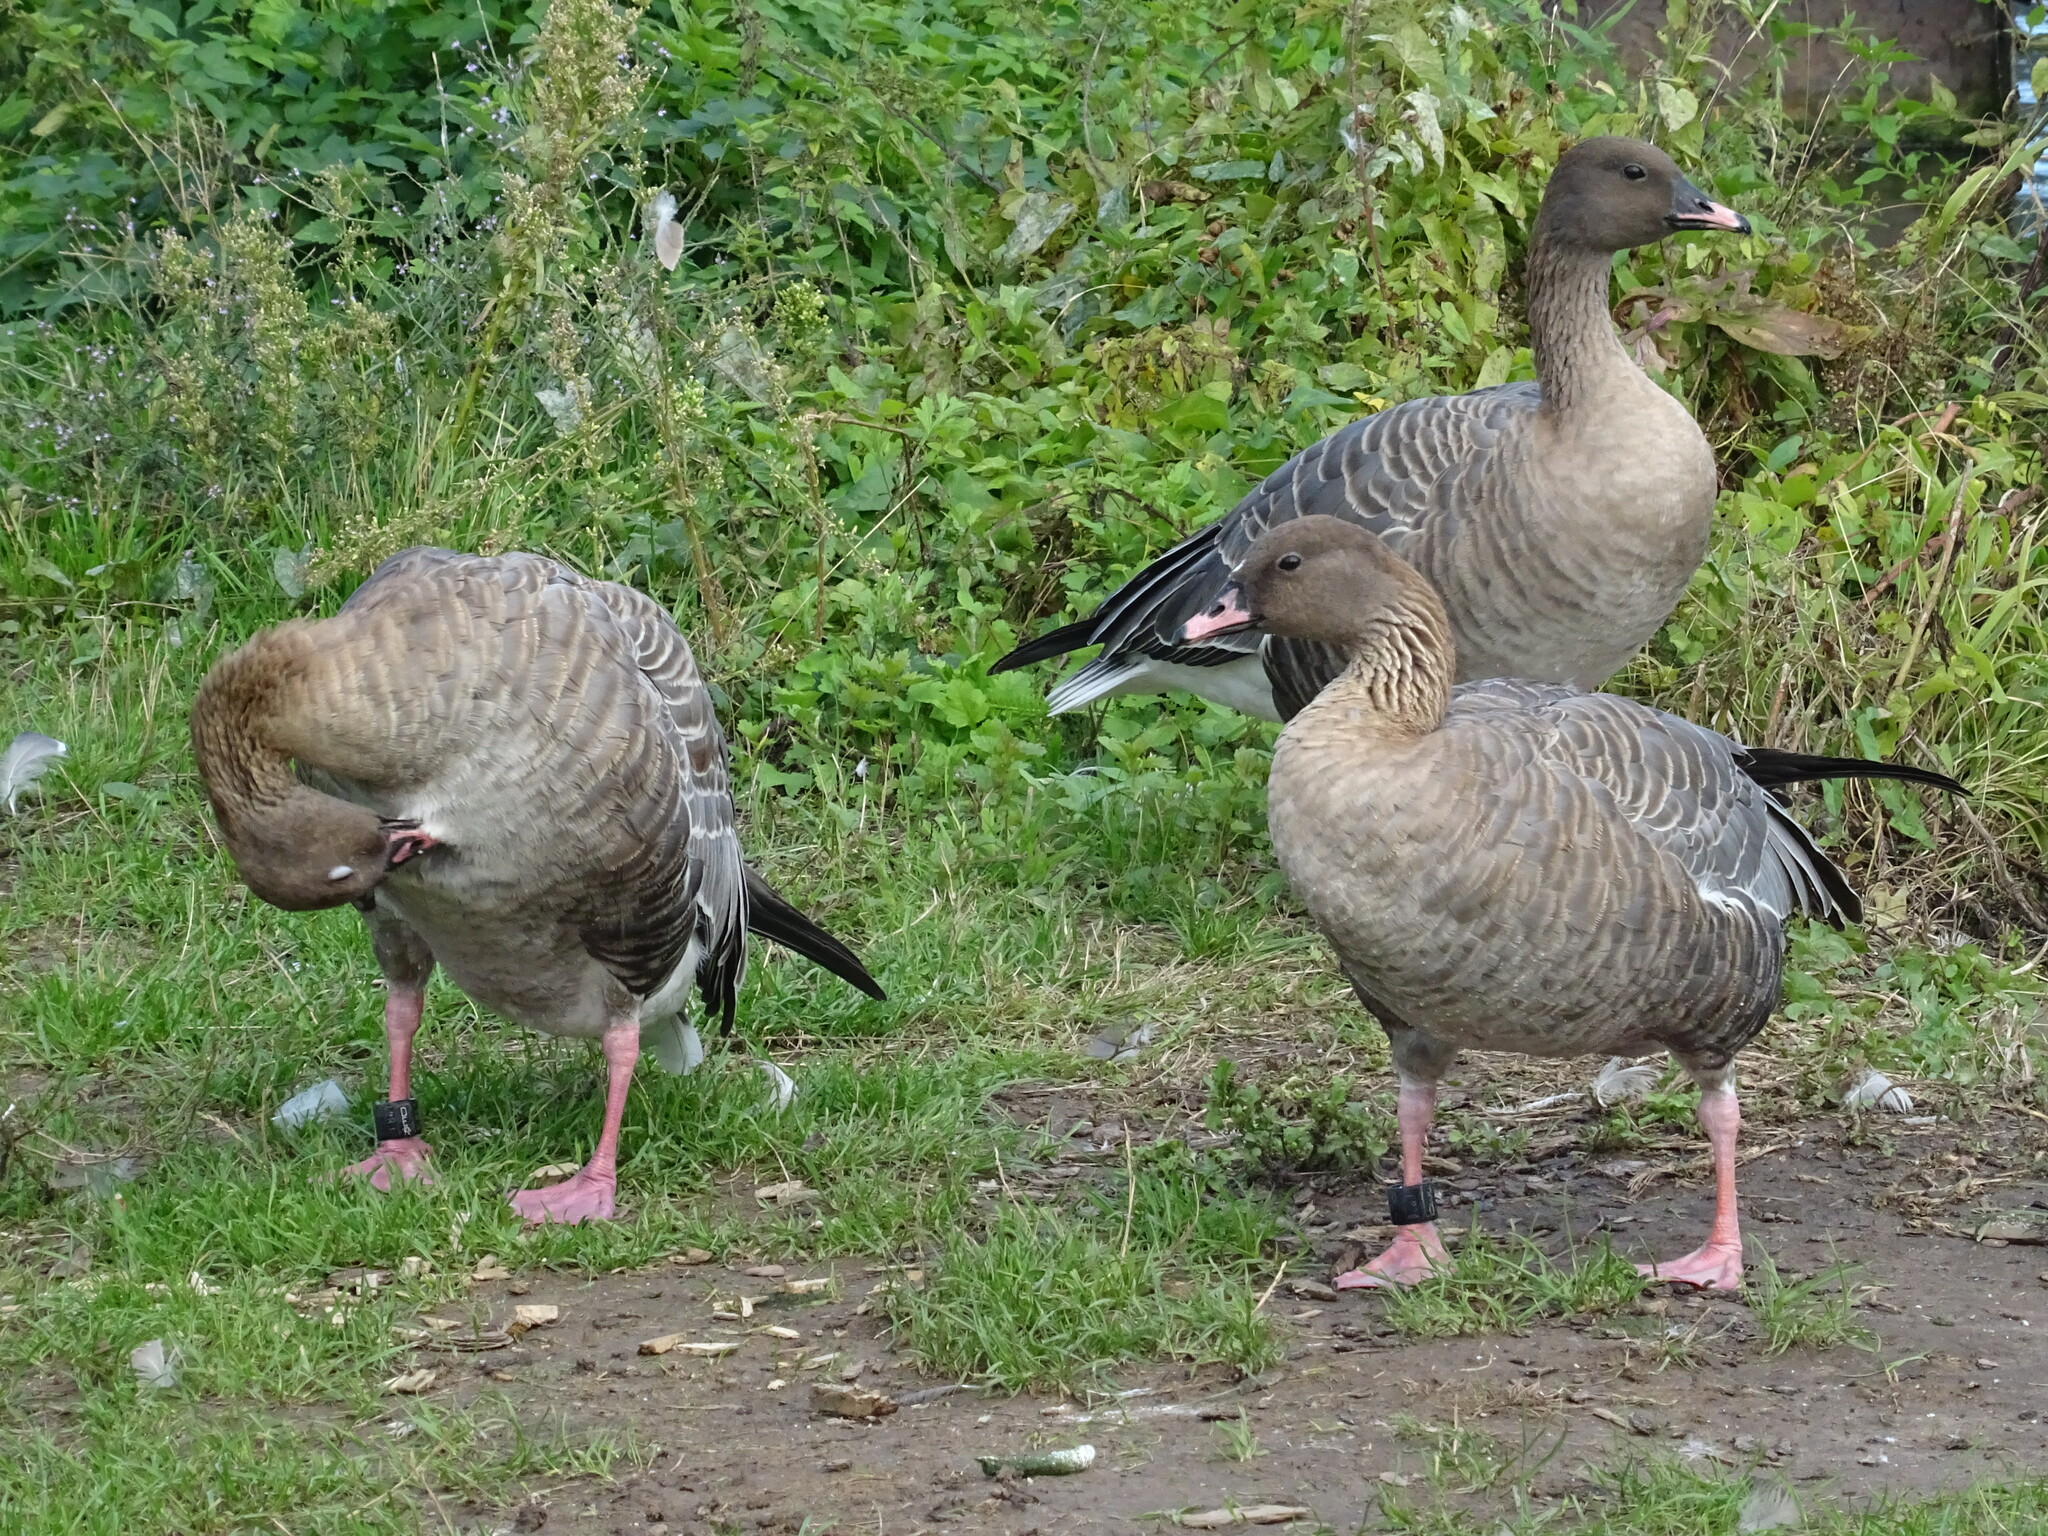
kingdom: Animalia
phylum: Chordata
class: Aves
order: Anseriformes
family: Anatidae
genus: Anser
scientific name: Anser brachyrhynchus
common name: Pink-footed goose
